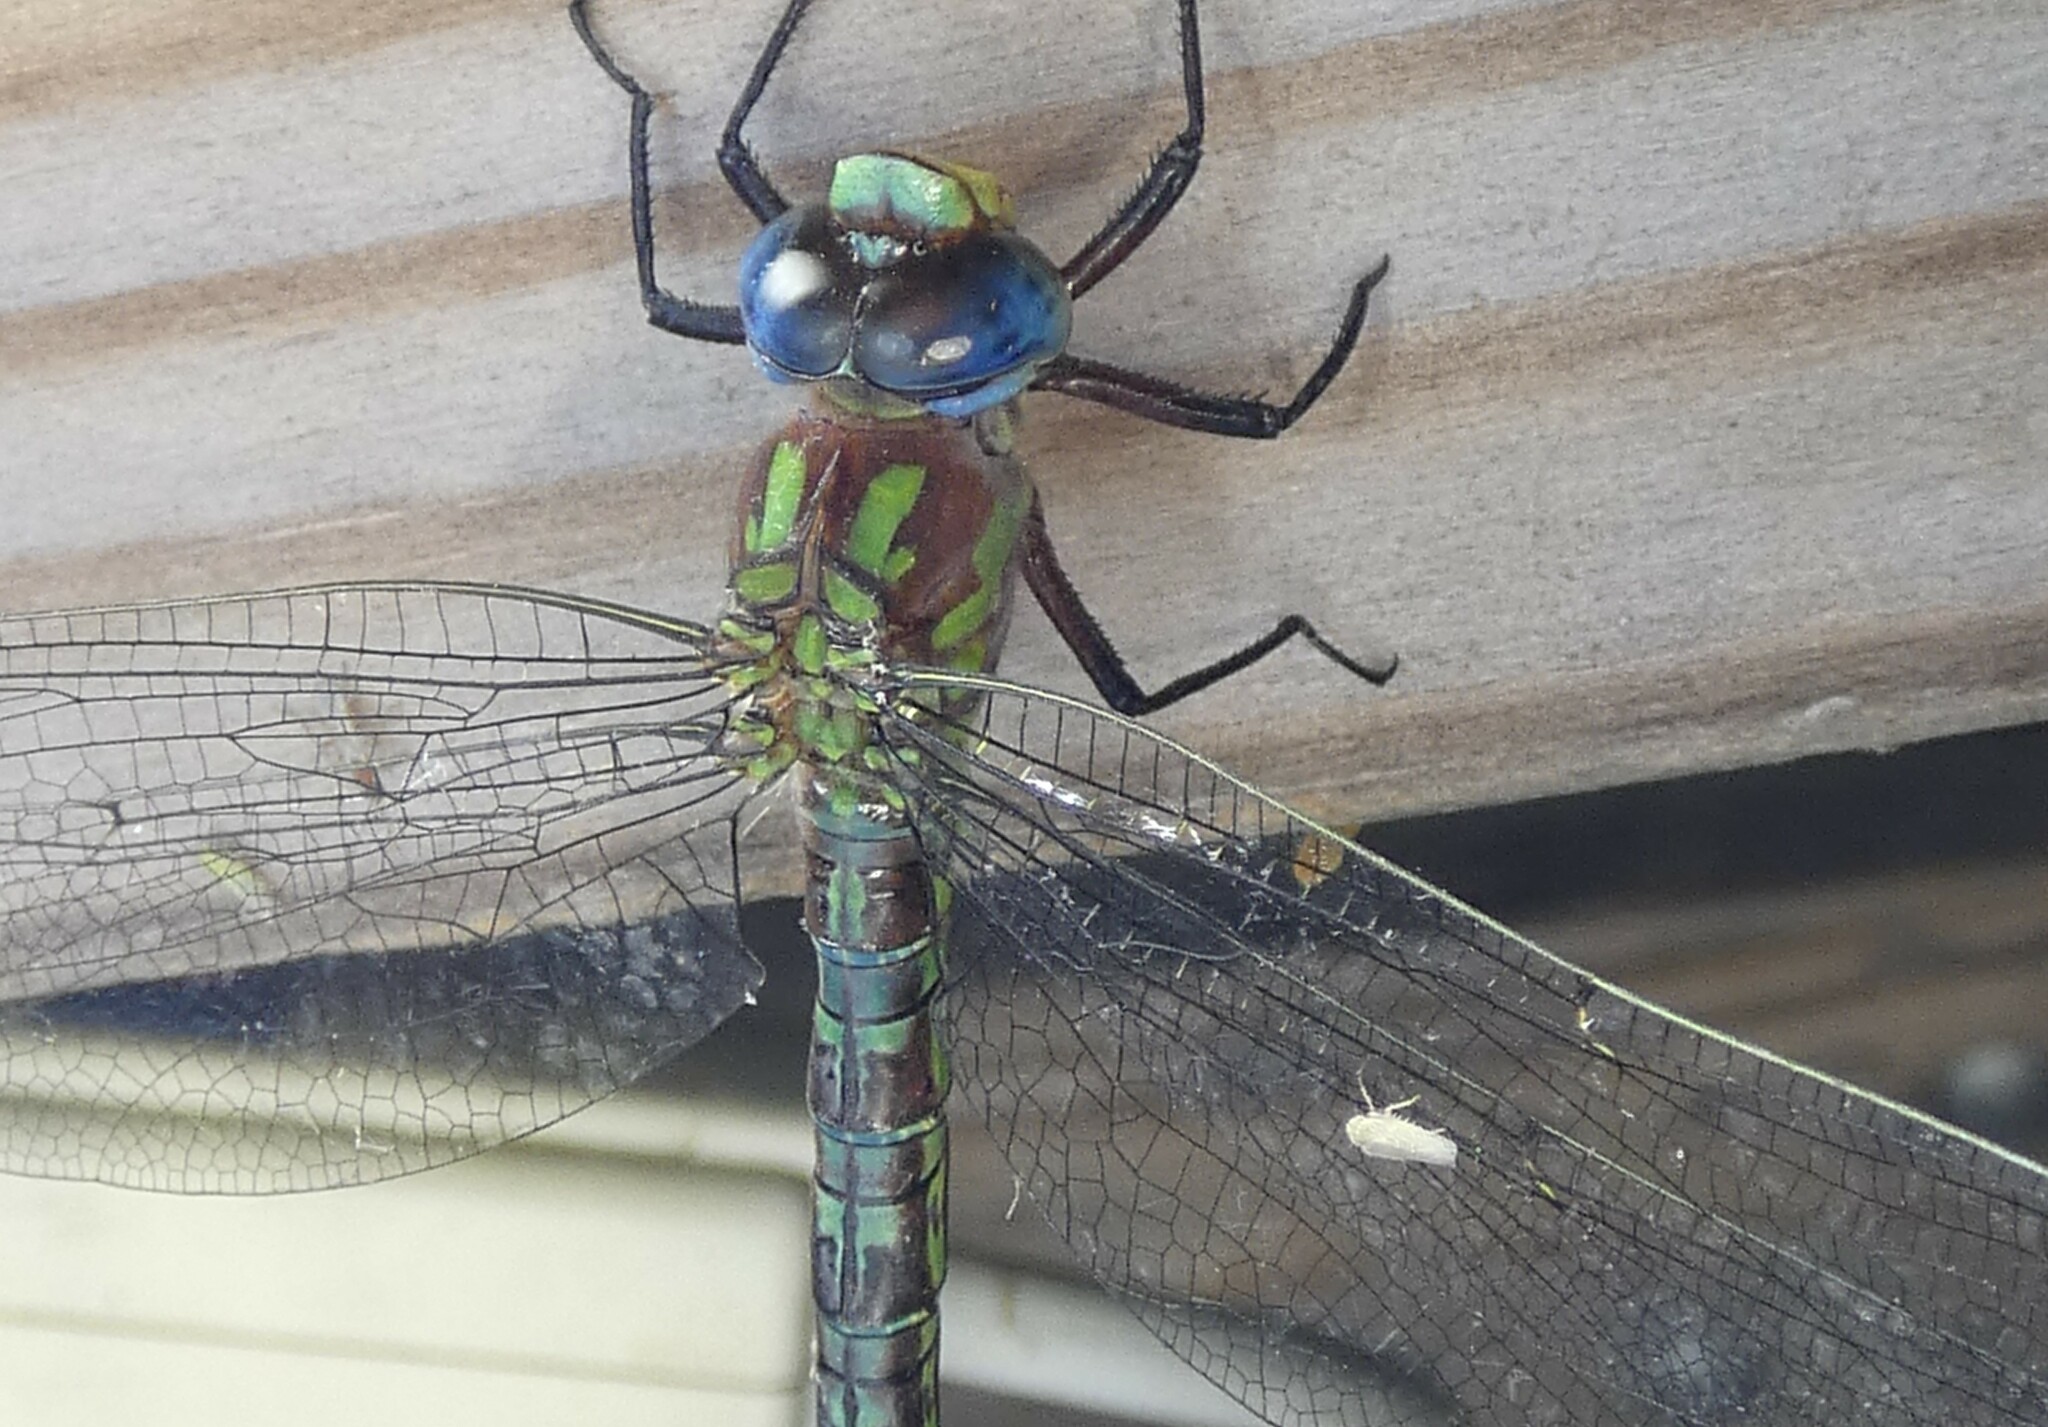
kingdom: Animalia
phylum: Arthropoda
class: Insecta
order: Odonata
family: Aeshnidae
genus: Nasiaeschna
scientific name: Nasiaeschna pentacantha
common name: Cyrano darner
